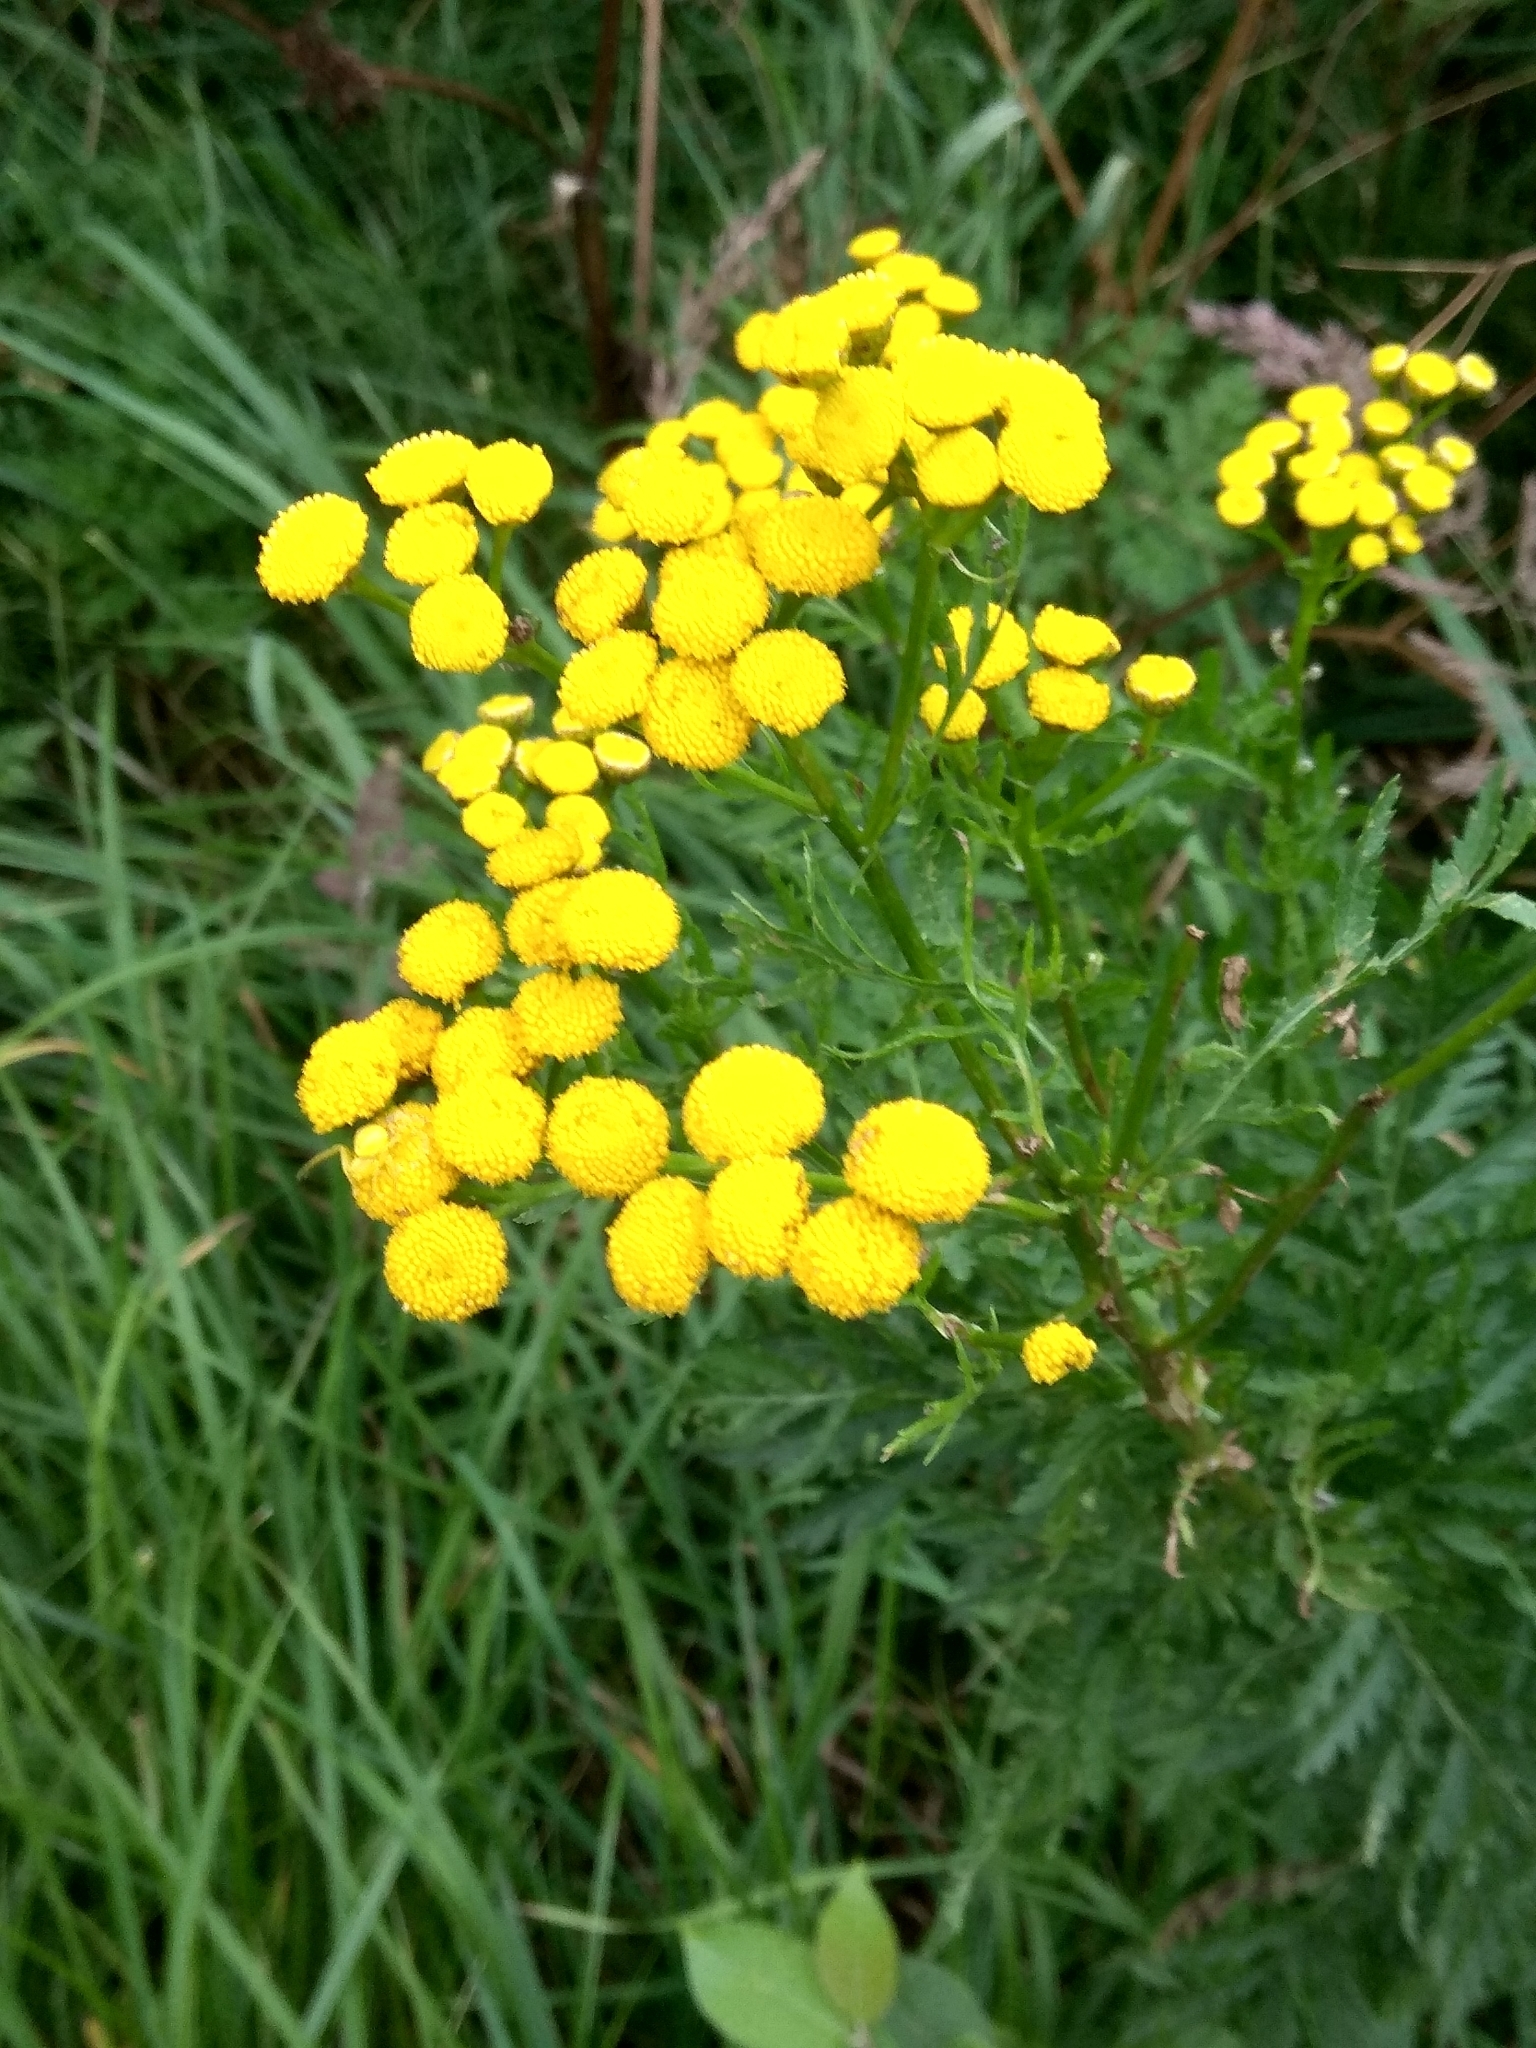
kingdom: Plantae
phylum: Tracheophyta
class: Magnoliopsida
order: Asterales
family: Asteraceae
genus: Tanacetum
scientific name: Tanacetum vulgare
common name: Common tansy
